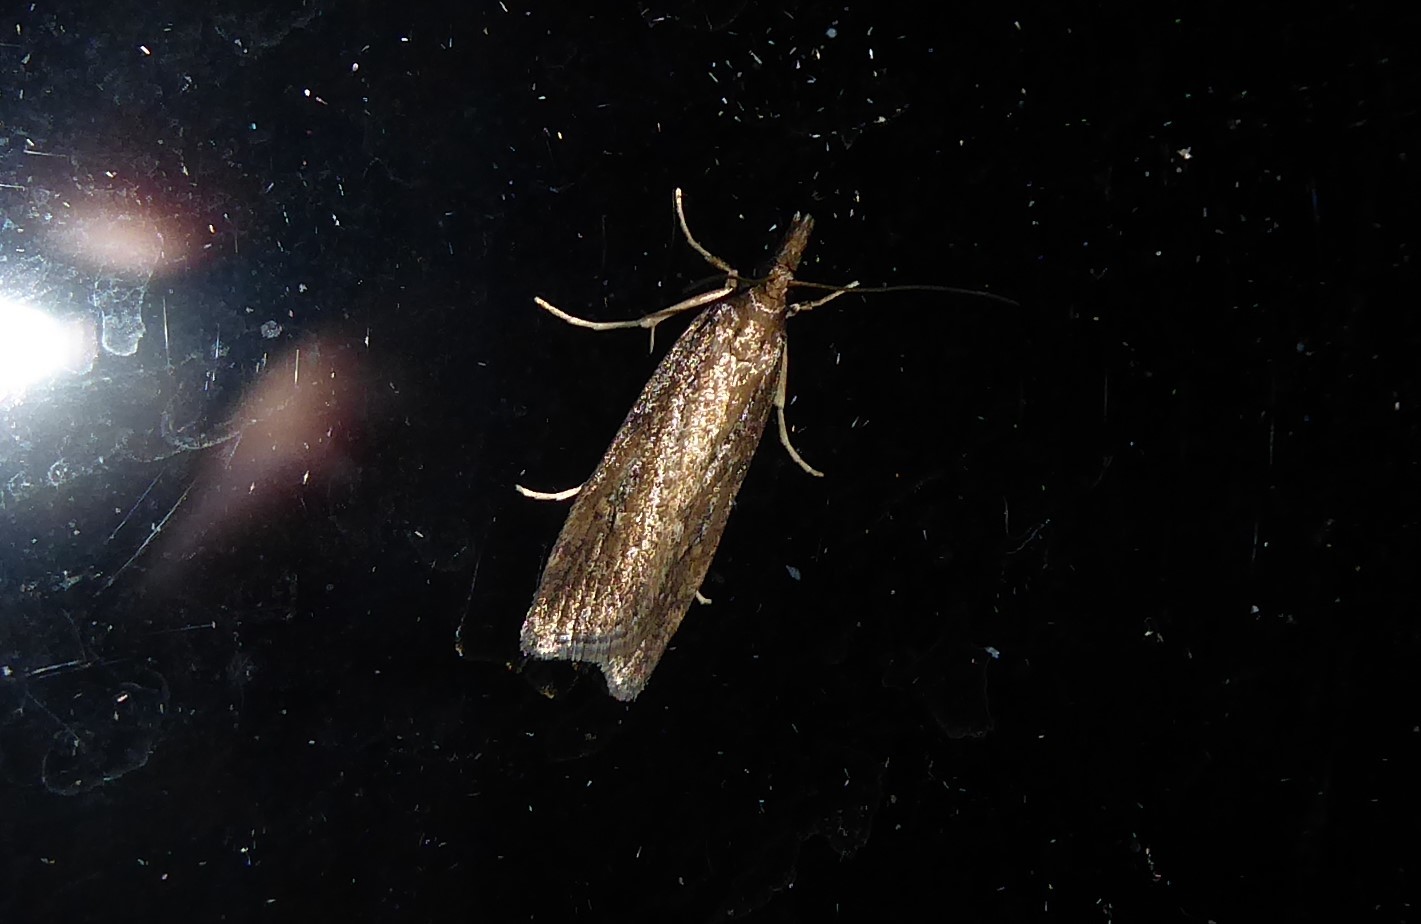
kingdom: Animalia
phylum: Arthropoda
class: Insecta
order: Lepidoptera
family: Crambidae
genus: Eudonia
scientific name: Eudonia octophora
